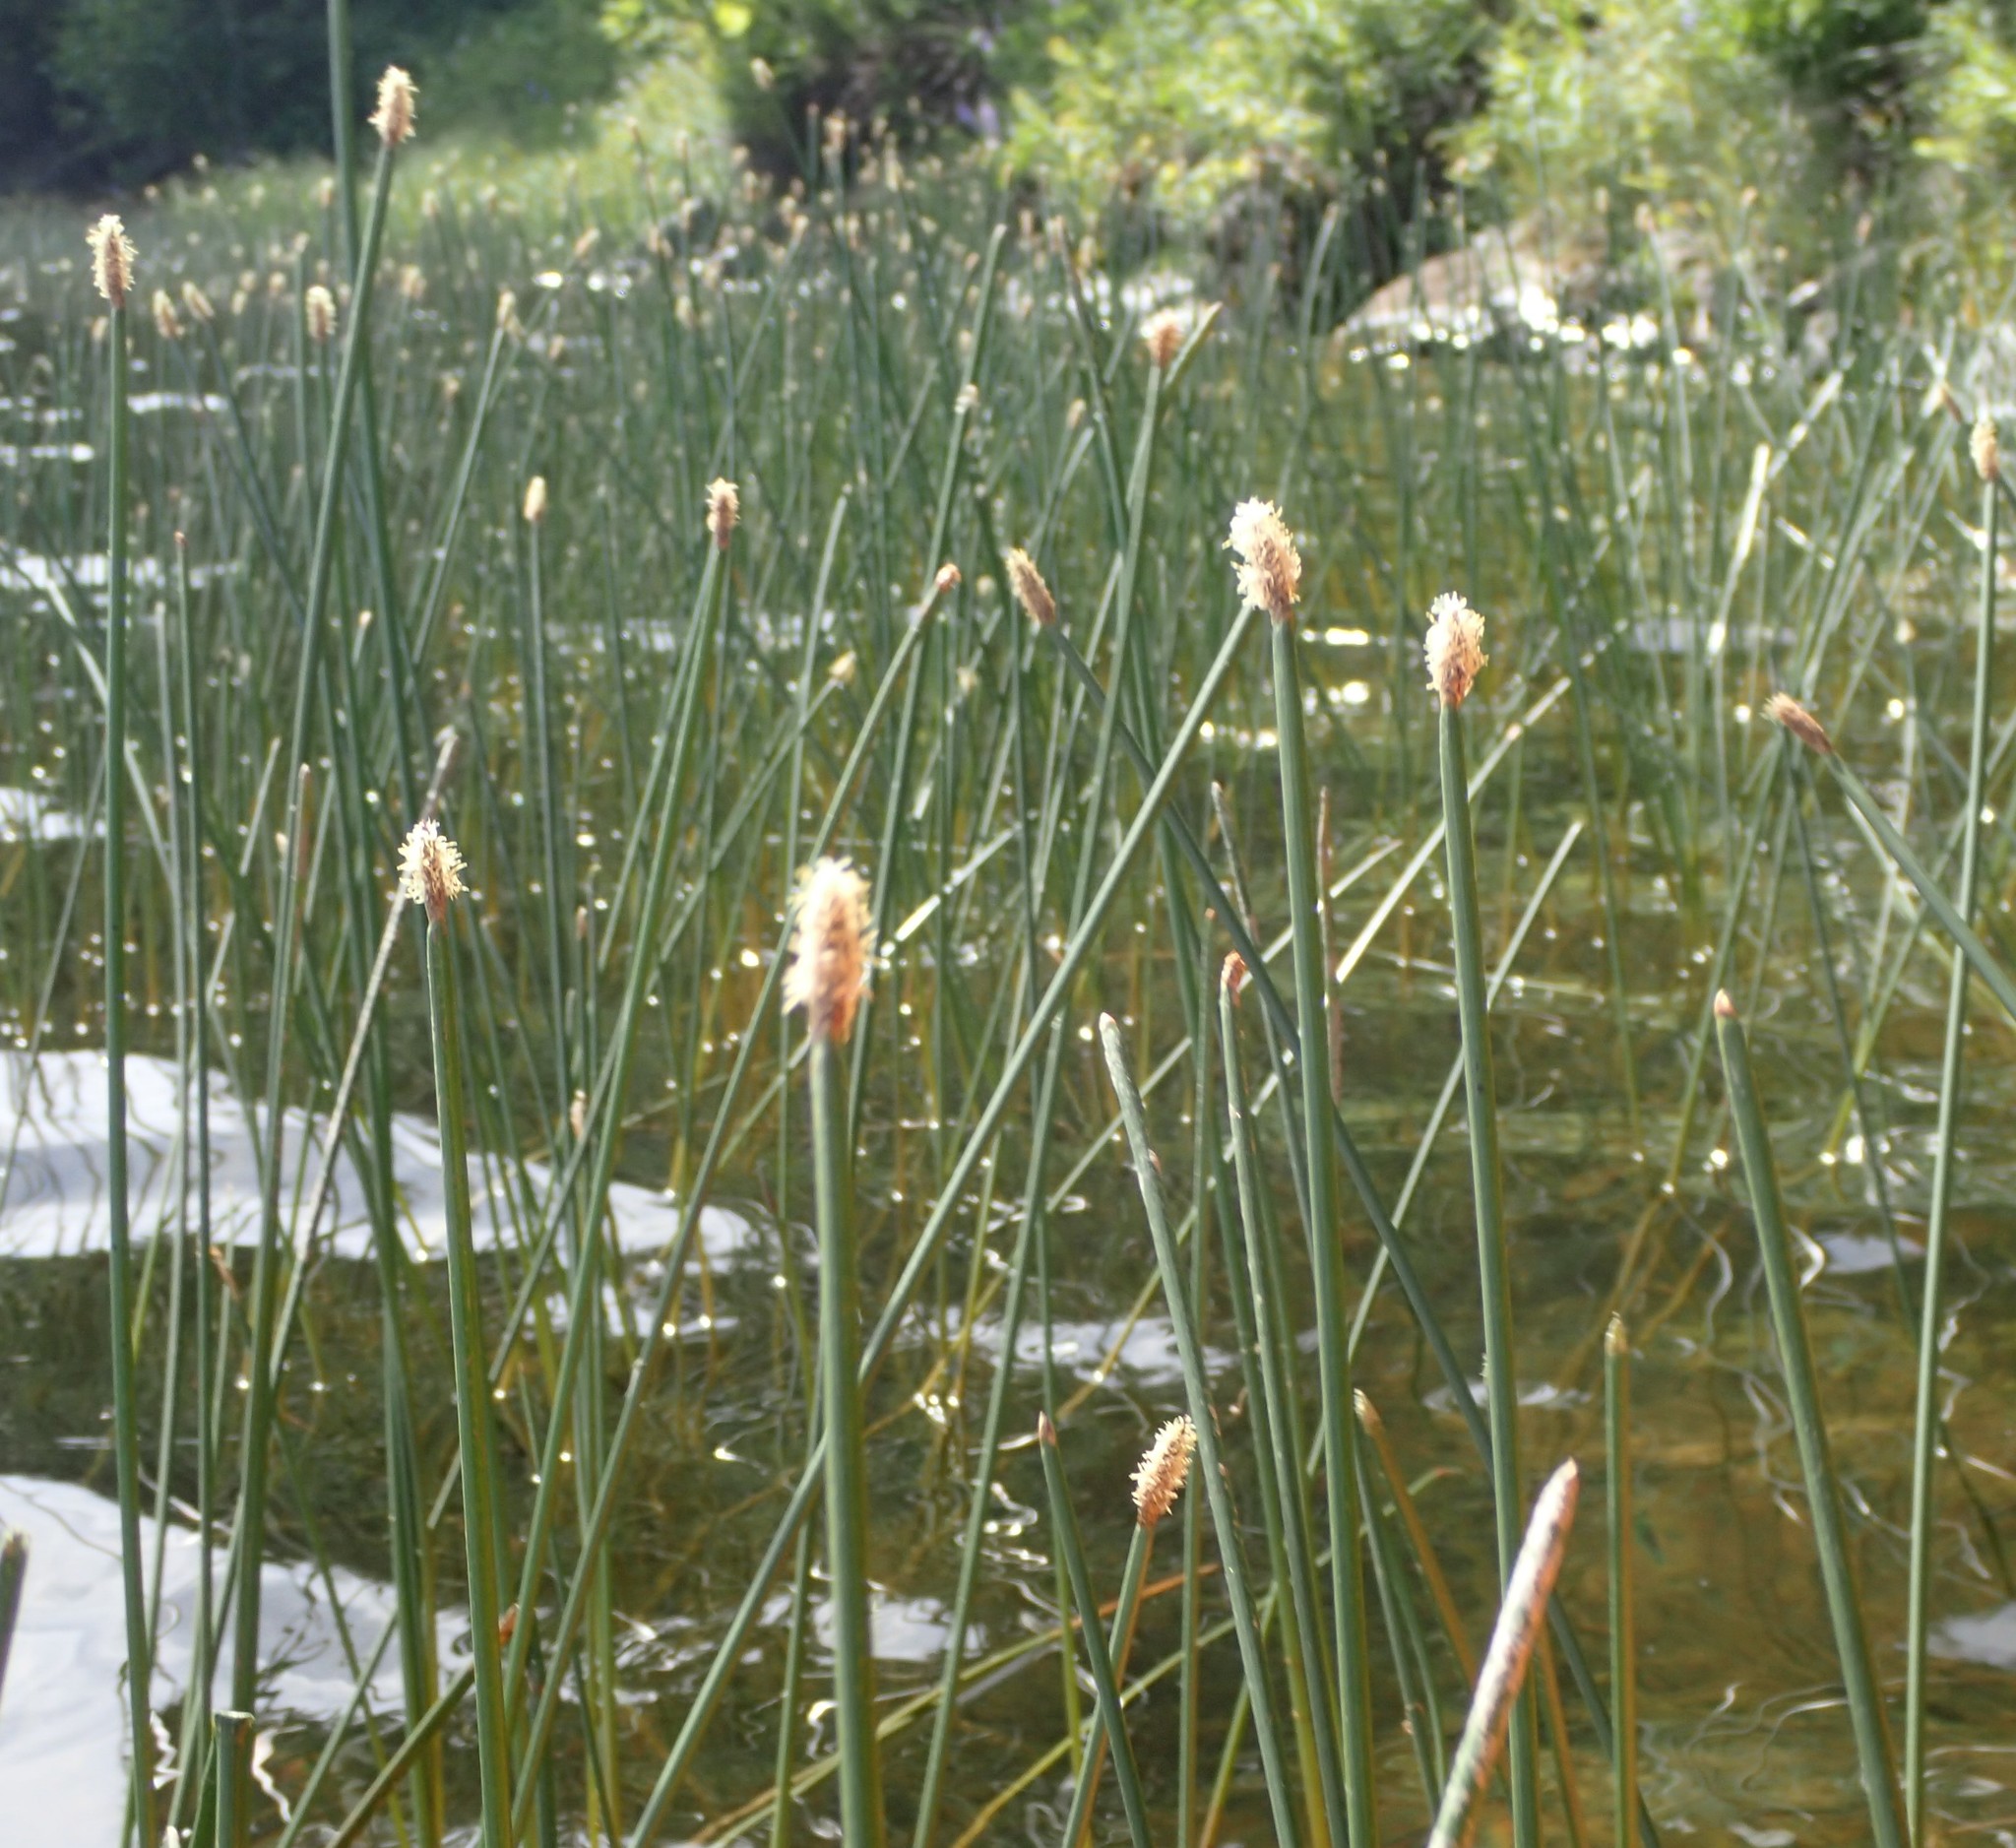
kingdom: Plantae
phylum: Tracheophyta
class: Liliopsida
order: Poales
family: Cyperaceae
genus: Eleocharis
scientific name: Eleocharis palustris
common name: Common spike-rush
